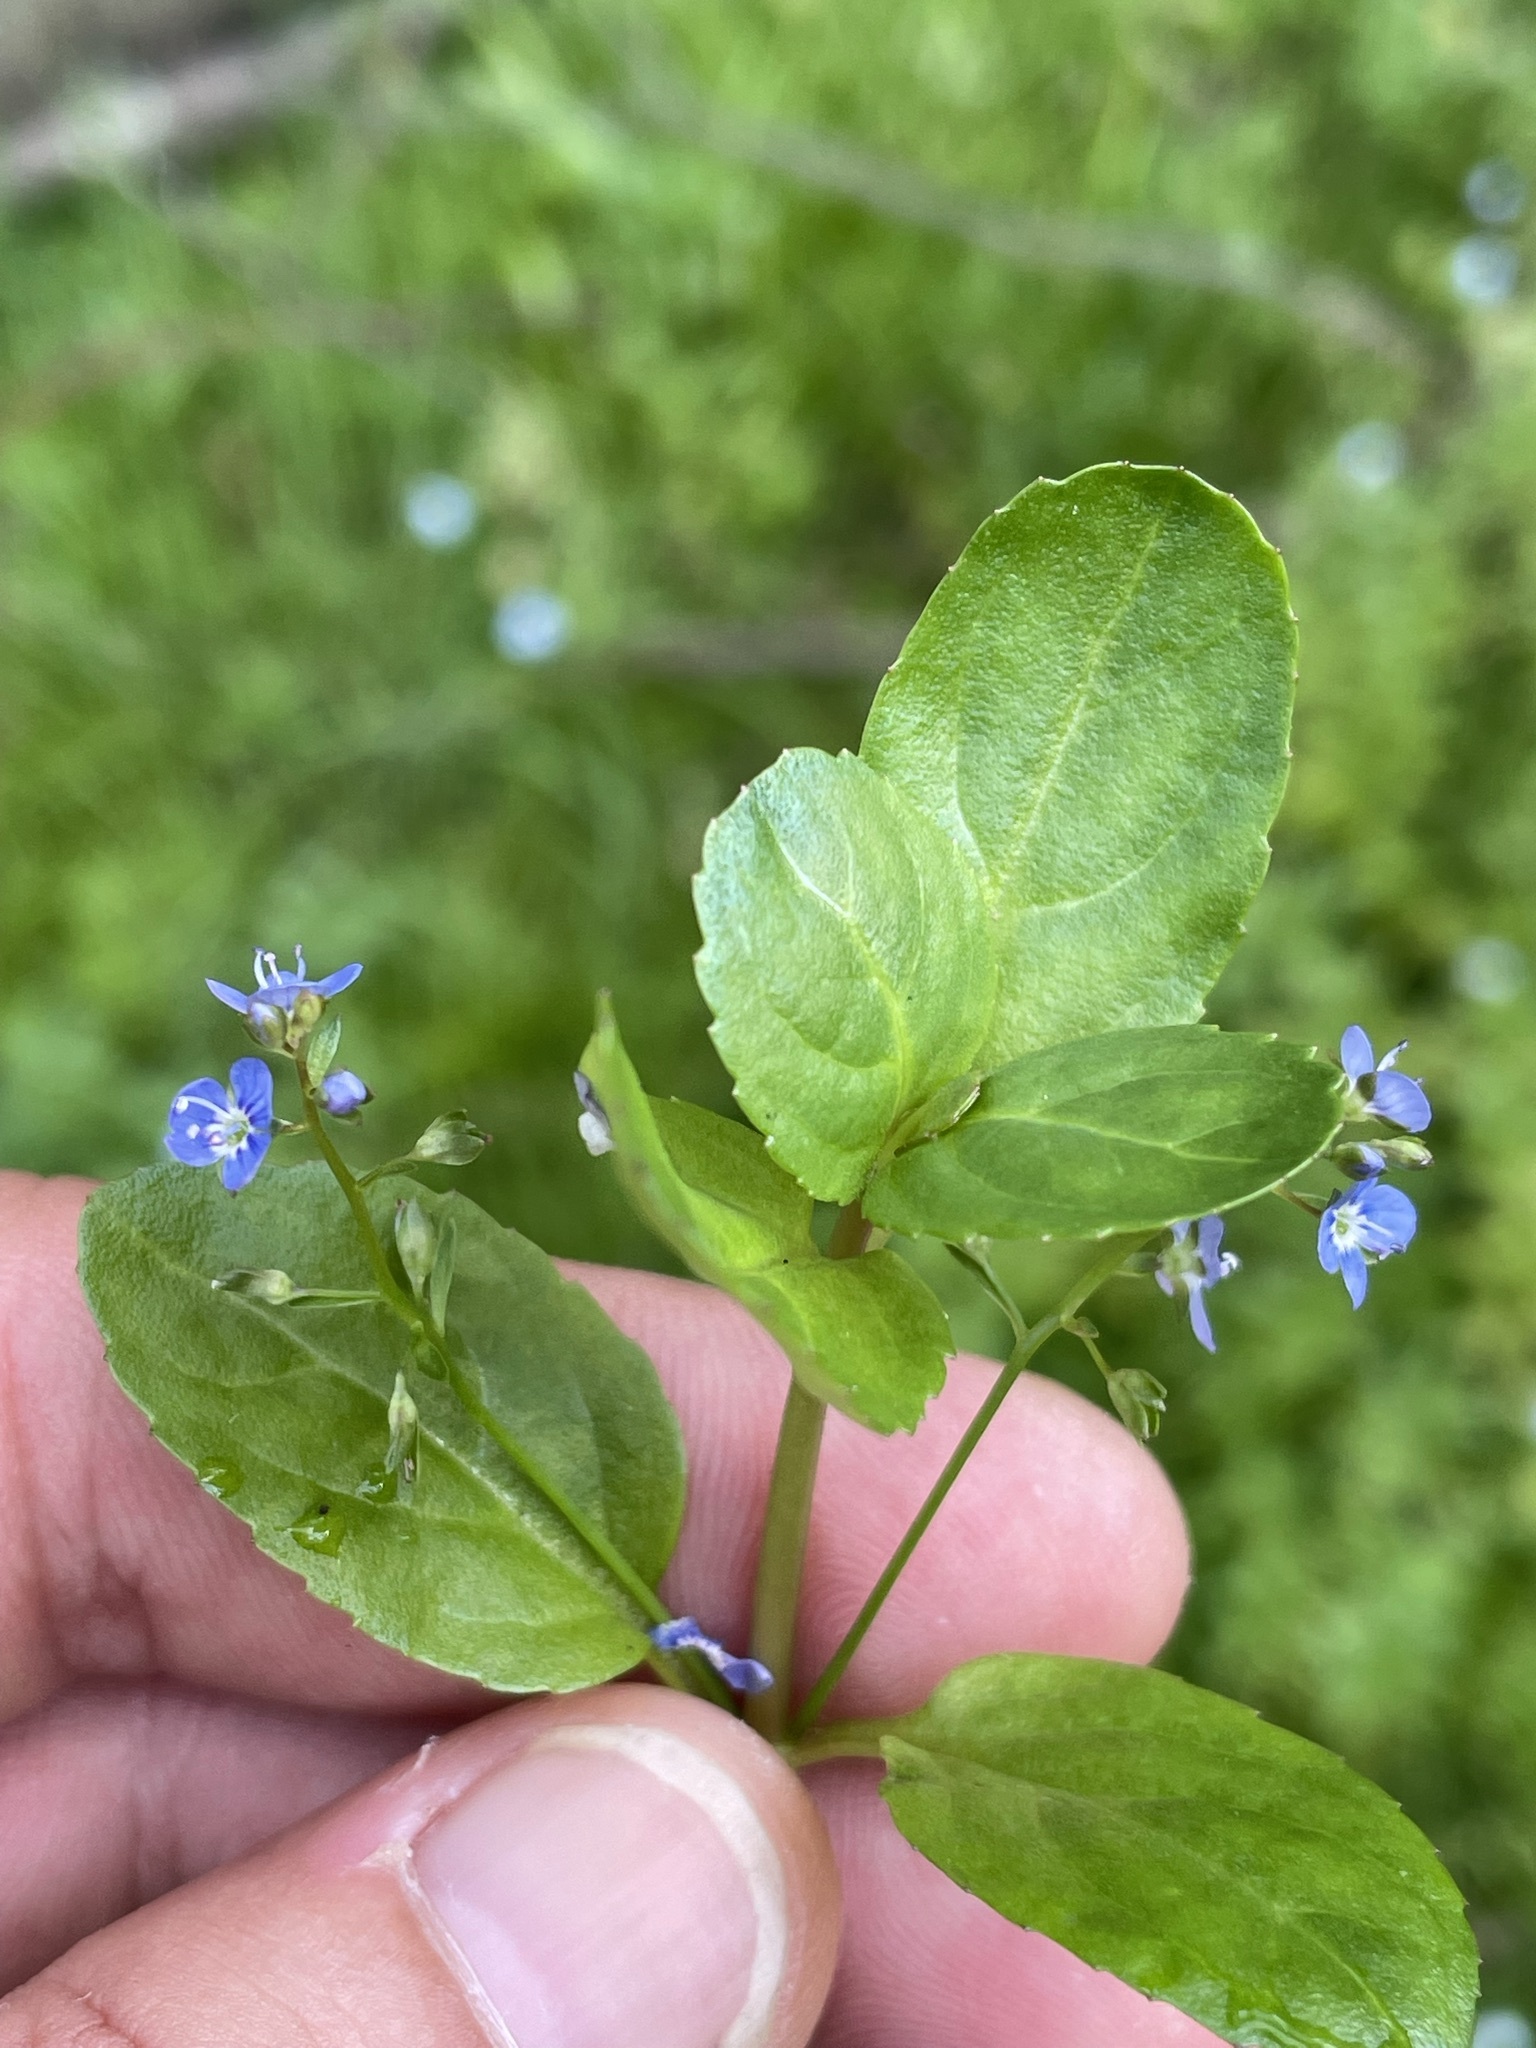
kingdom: Plantae
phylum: Tracheophyta
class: Magnoliopsida
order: Lamiales
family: Plantaginaceae
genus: Veronica
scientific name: Veronica beccabunga
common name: Brooklime
